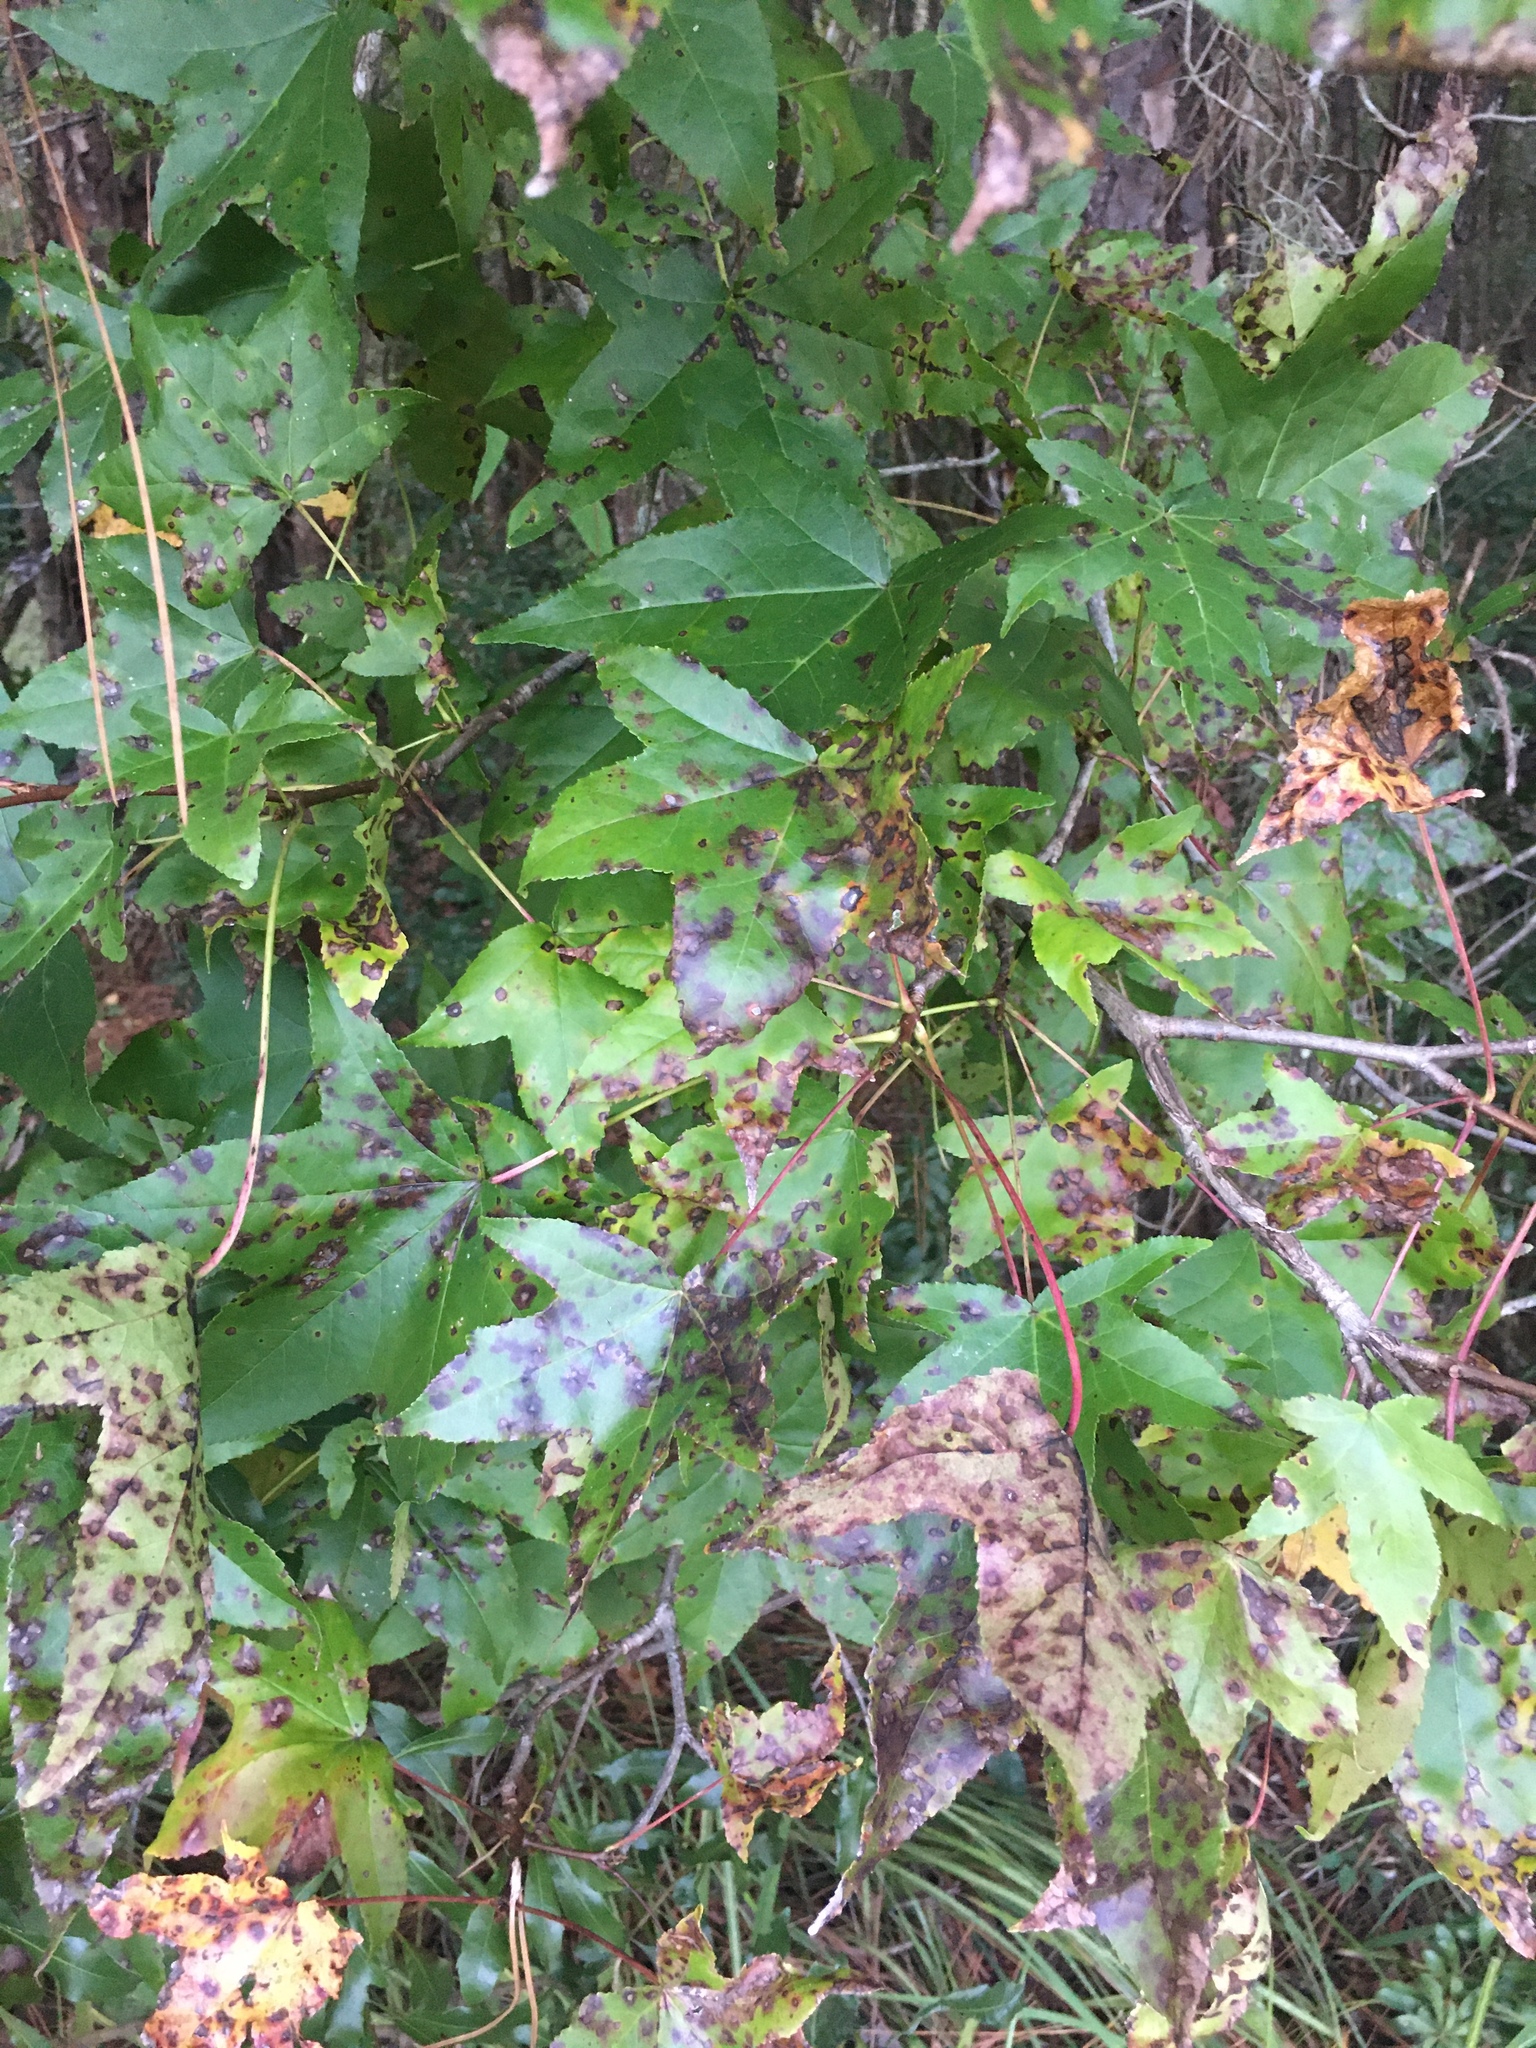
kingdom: Plantae
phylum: Tracheophyta
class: Magnoliopsida
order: Saxifragales
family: Altingiaceae
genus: Liquidambar
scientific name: Liquidambar styraciflua
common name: Sweet gum
